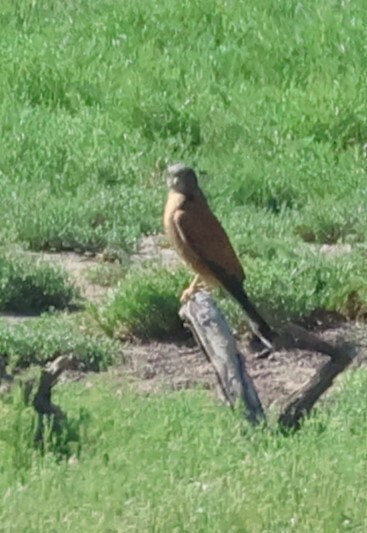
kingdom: Animalia
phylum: Chordata
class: Aves
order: Falconiformes
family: Falconidae
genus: Falco
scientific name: Falco rupicolus
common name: Rock kestrel
